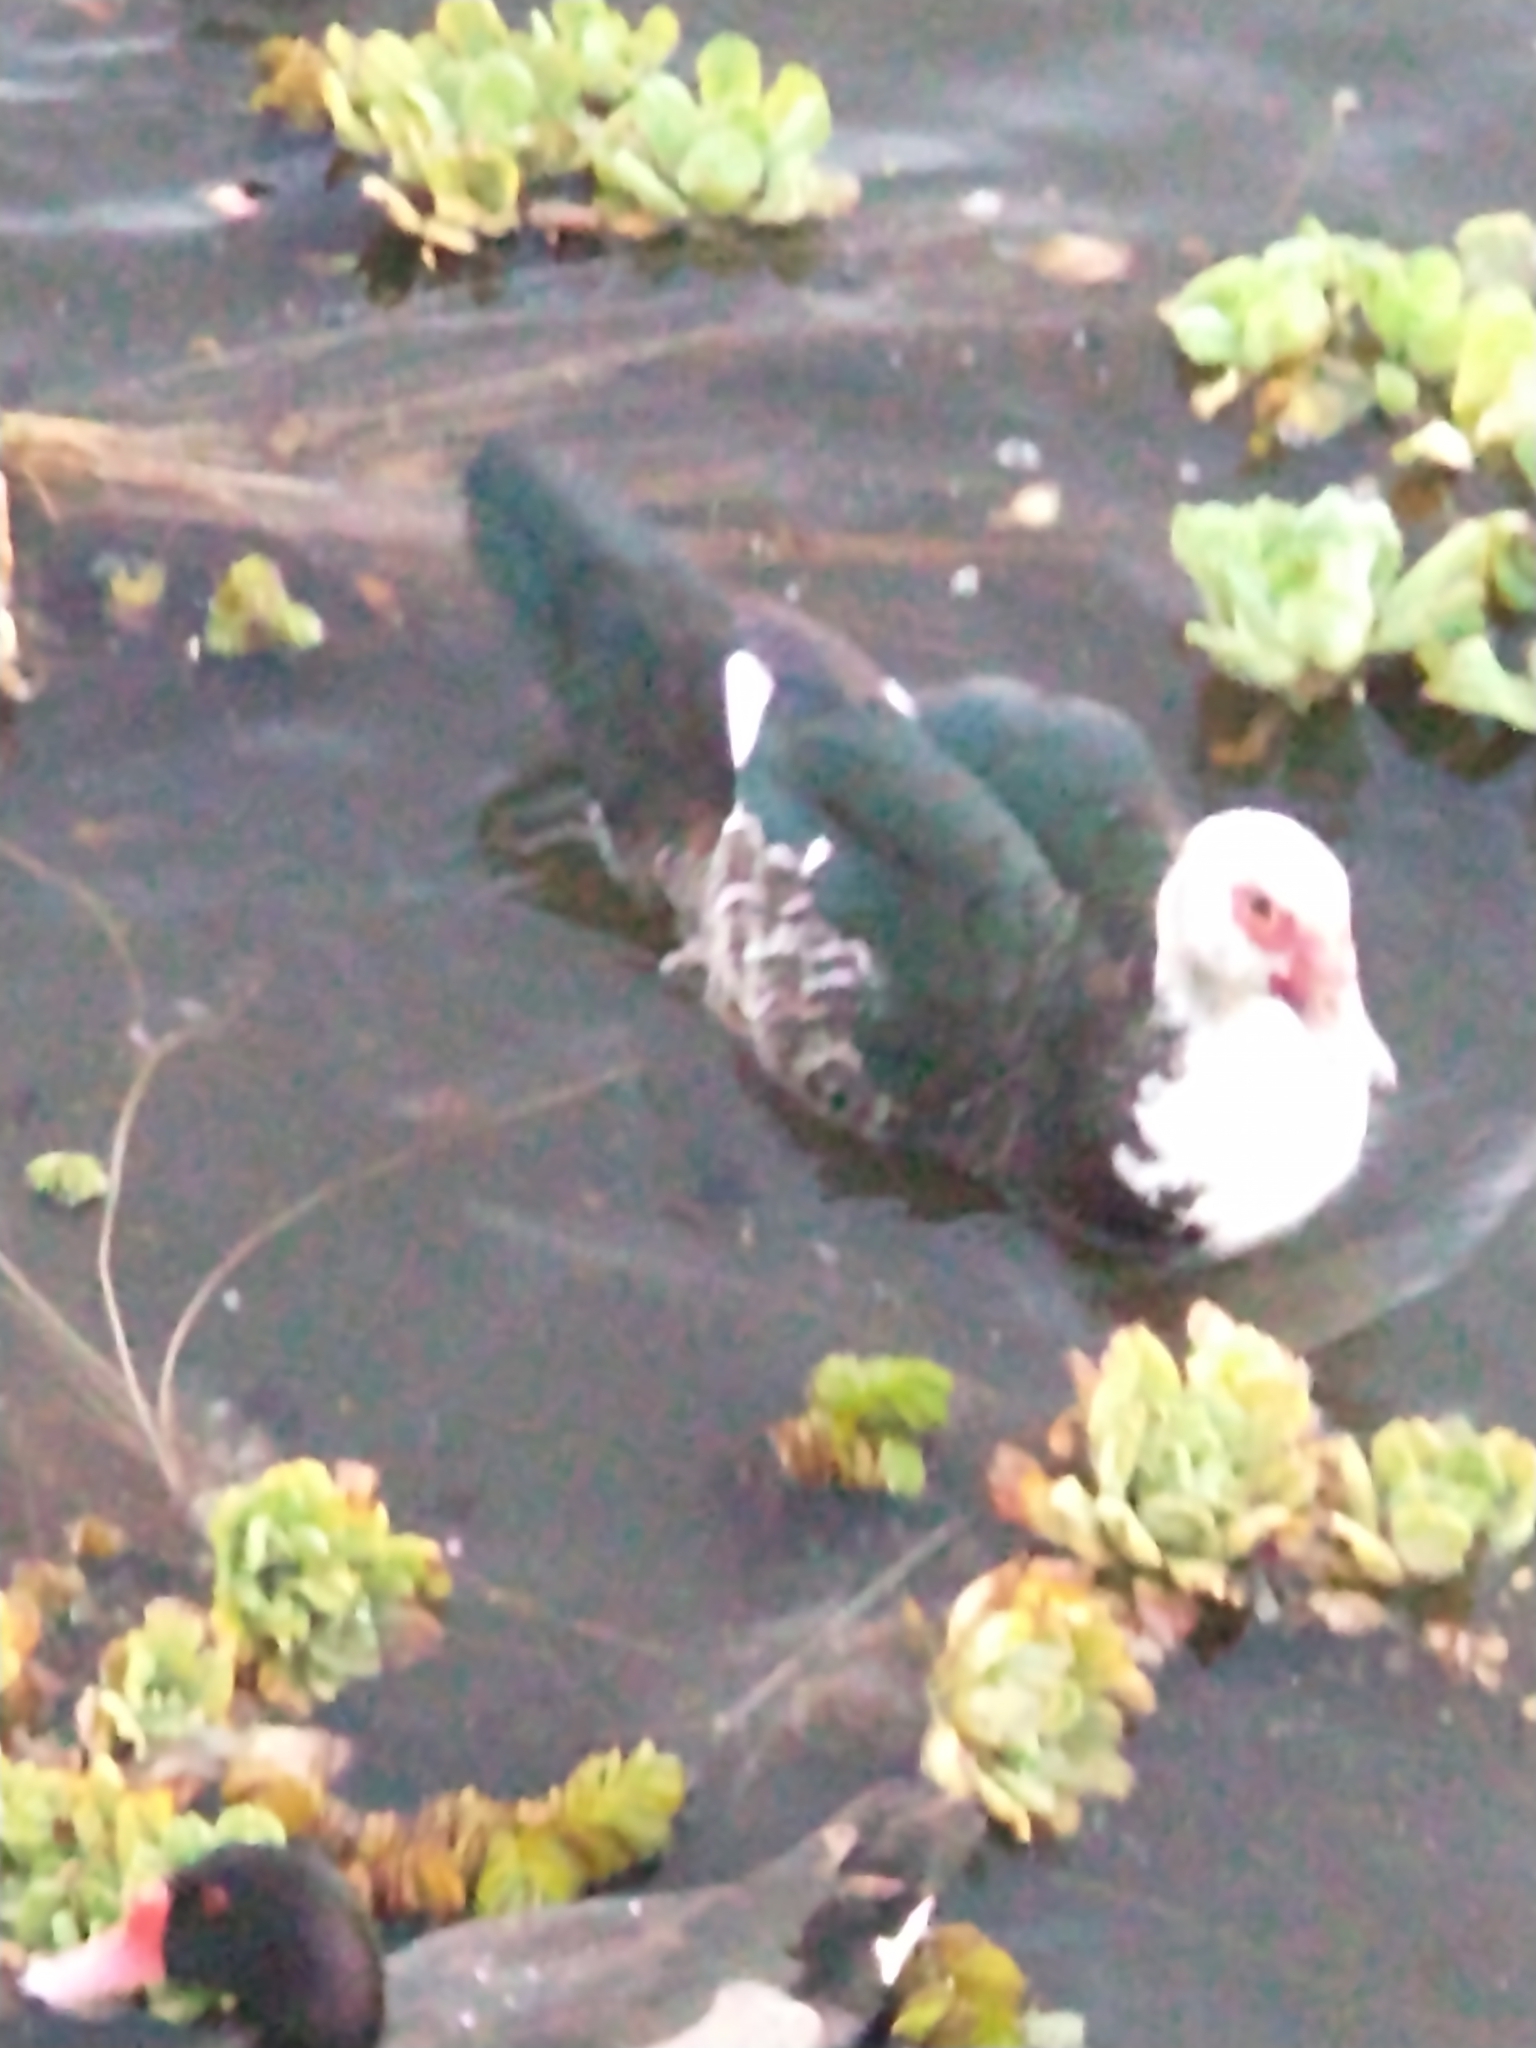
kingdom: Animalia
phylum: Chordata
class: Aves
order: Anseriformes
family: Anatidae
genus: Cairina
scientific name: Cairina moschata
